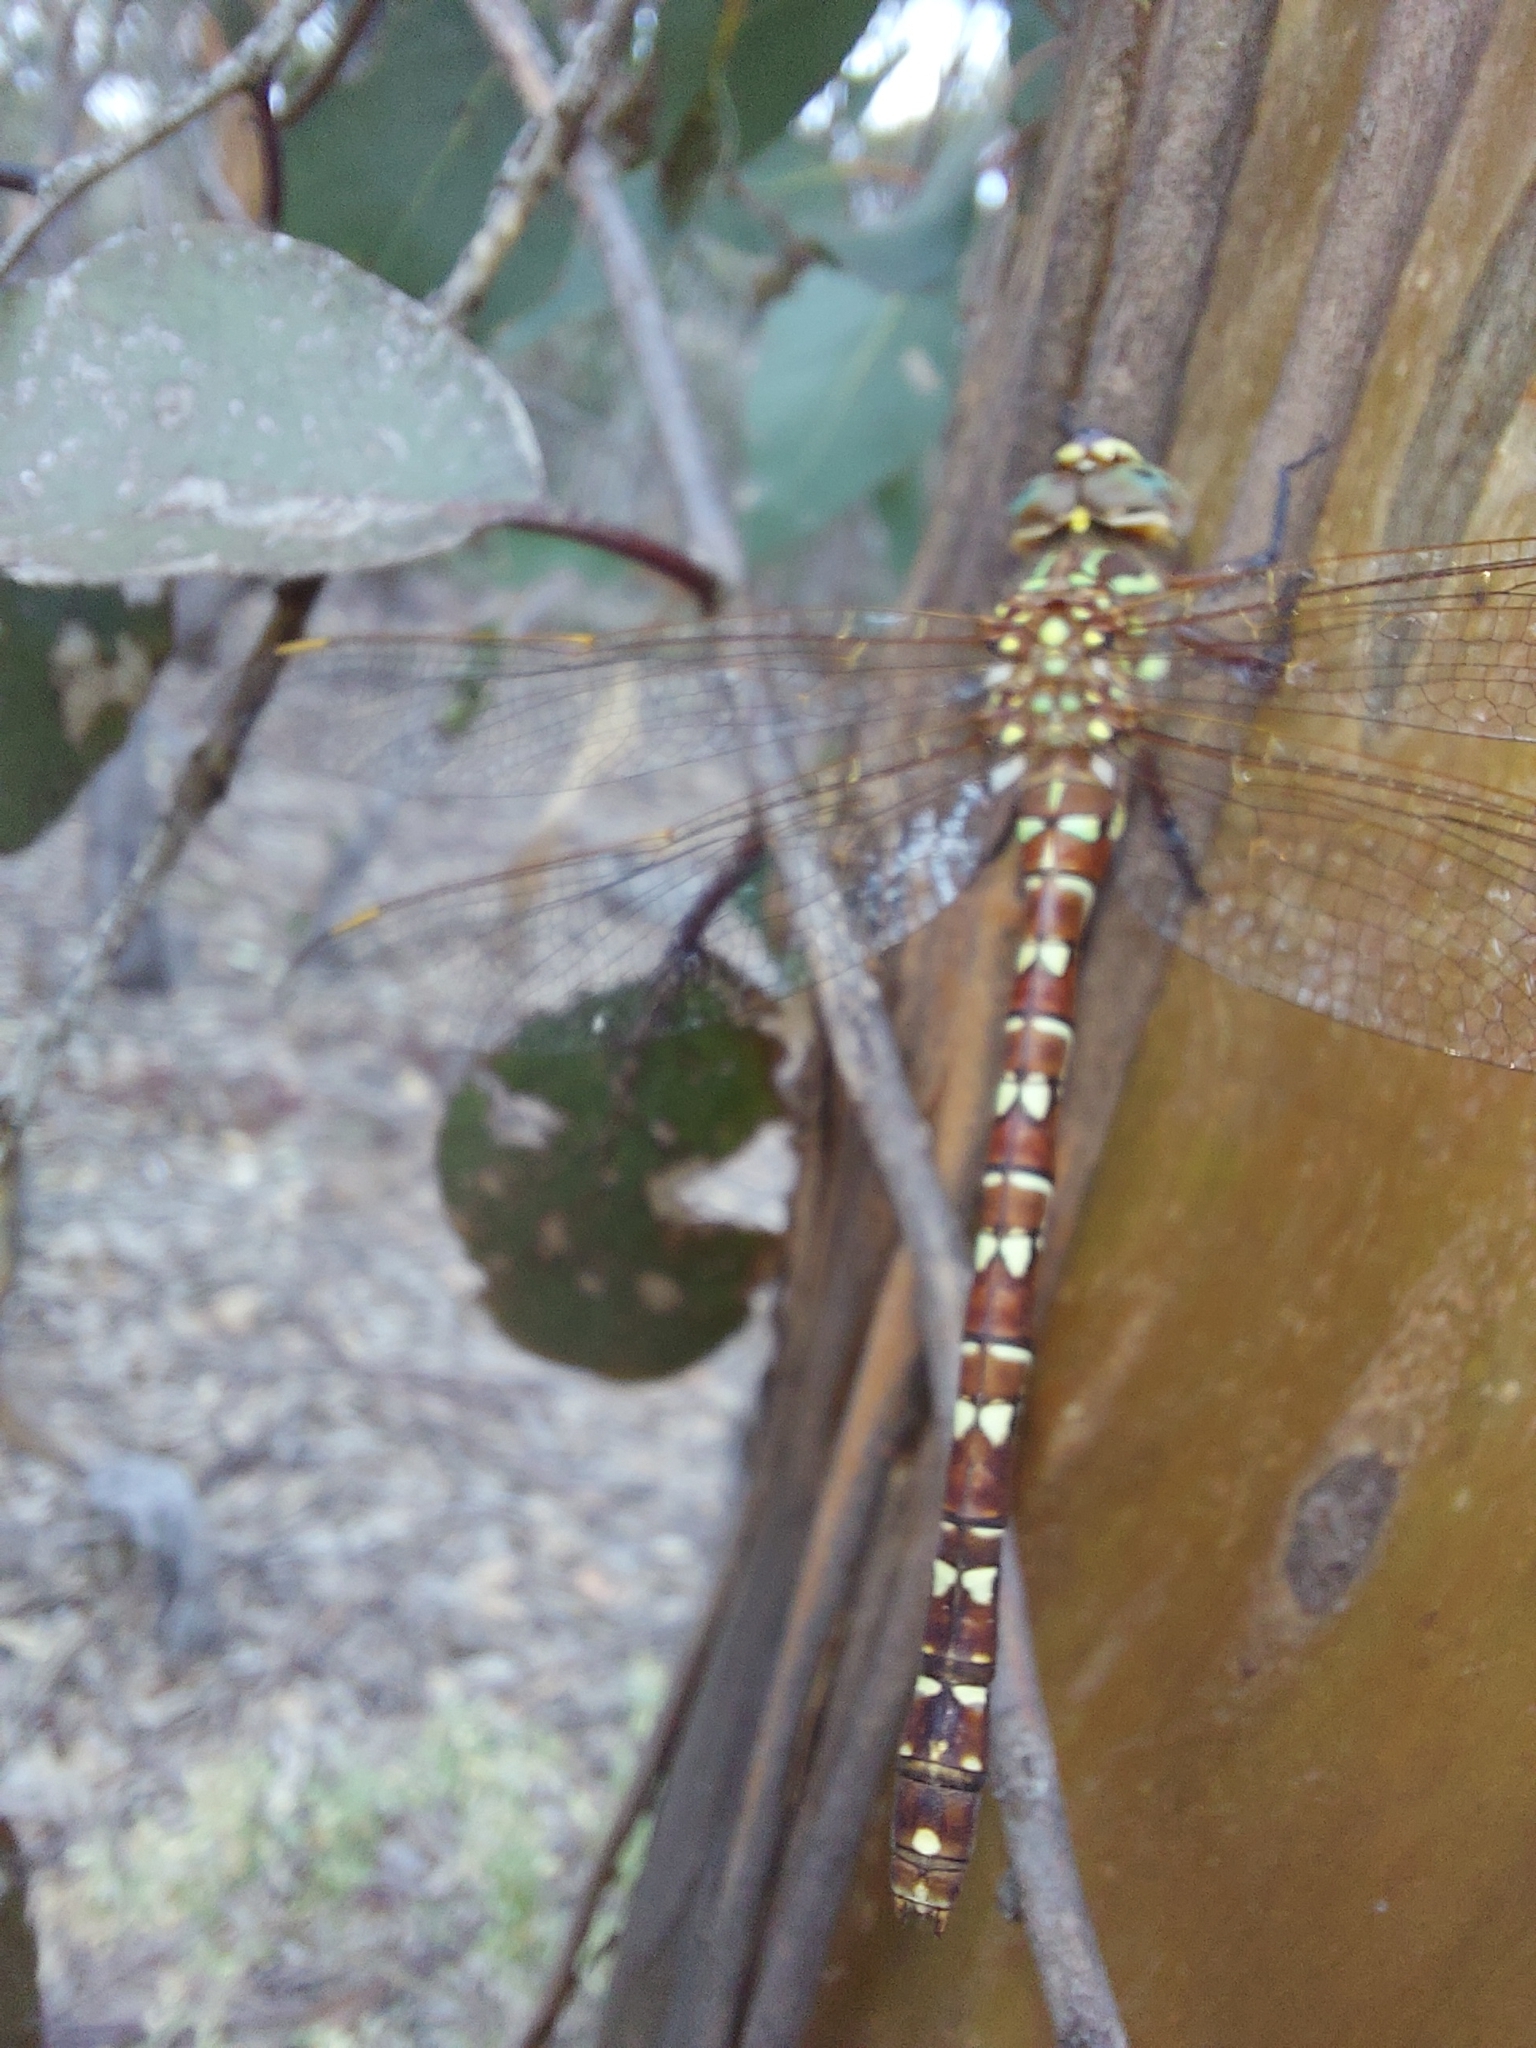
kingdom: Animalia
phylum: Arthropoda
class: Insecta
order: Odonata
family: Aeshnidae
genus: Austroaeschna
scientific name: Austroaeschna unicornis
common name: Unicorn darner
